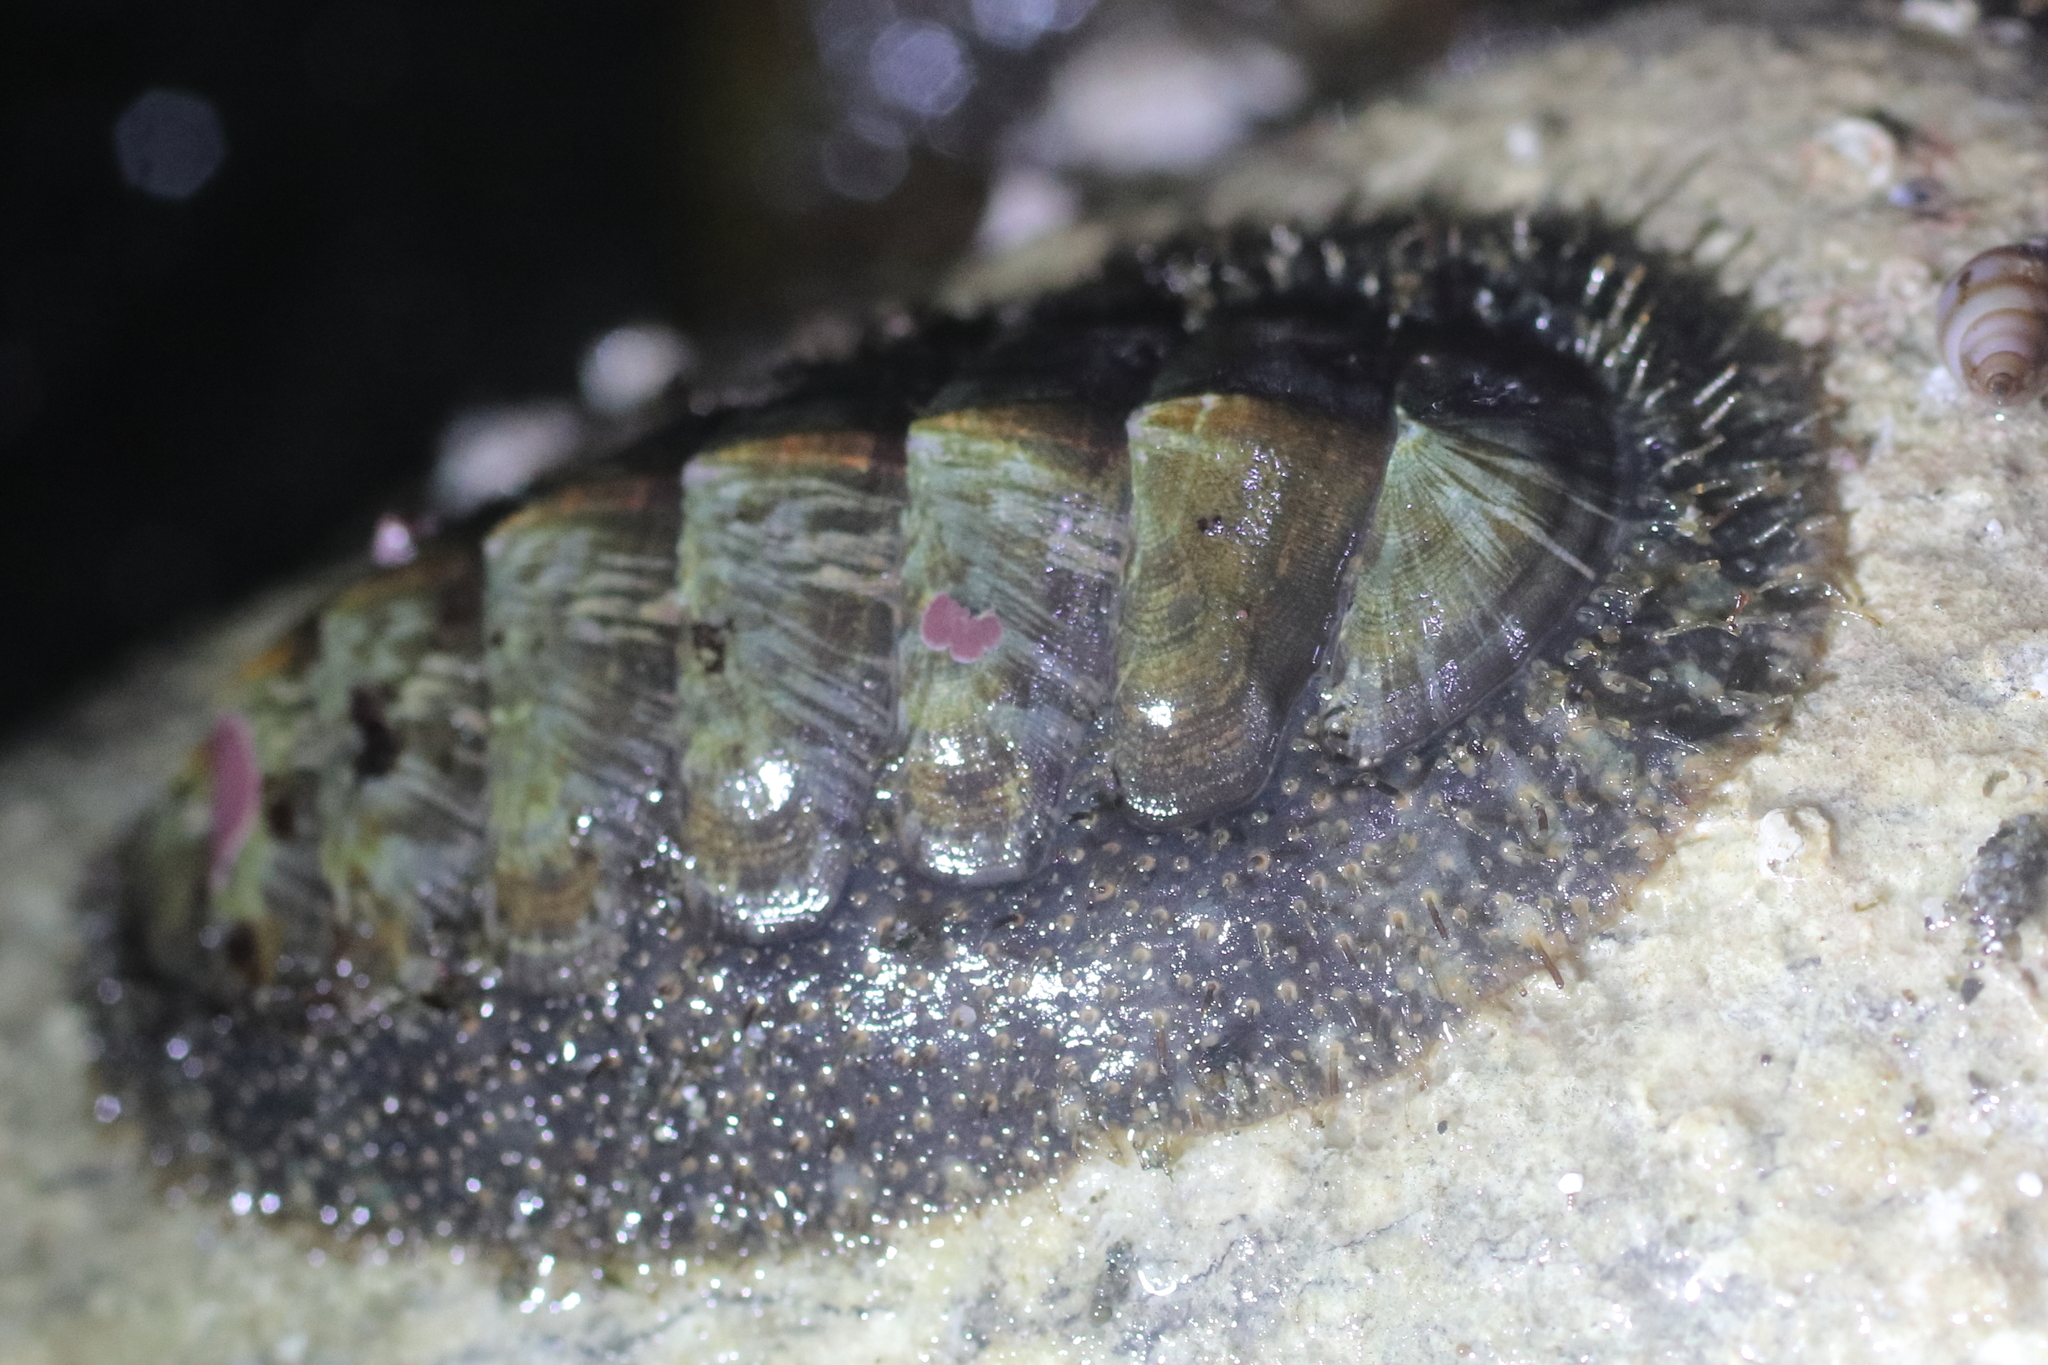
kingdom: Animalia
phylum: Mollusca
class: Polyplacophora
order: Chitonida
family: Mopaliidae
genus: Mopalia
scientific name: Mopalia lignosa
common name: Woody chiton
